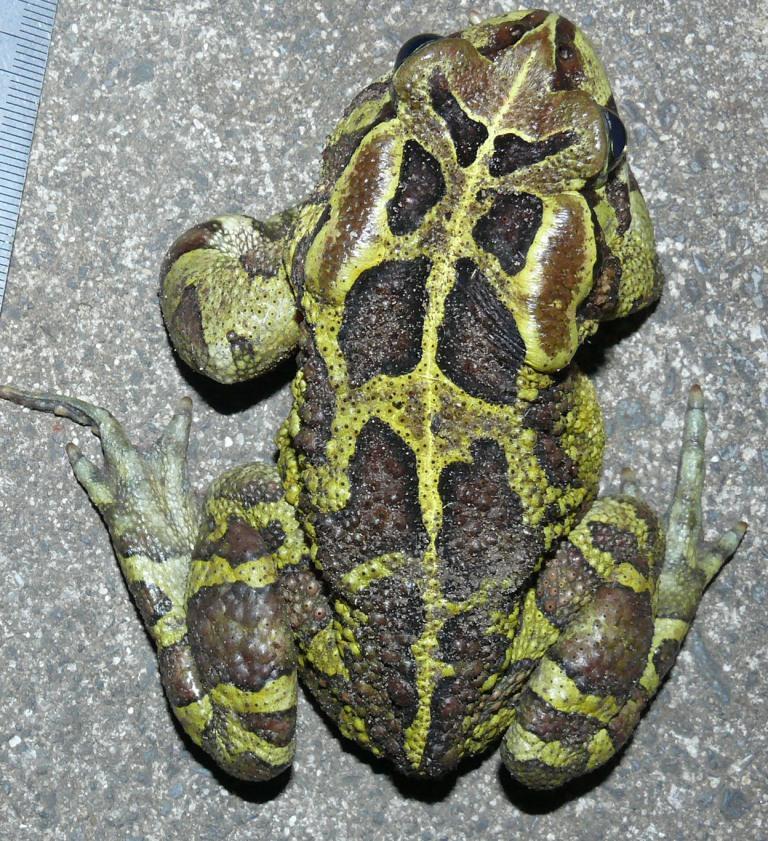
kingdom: Animalia
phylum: Chordata
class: Amphibia
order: Anura
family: Bufonidae
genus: Sclerophrys
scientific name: Sclerophrys pantherina
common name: Panther toad
